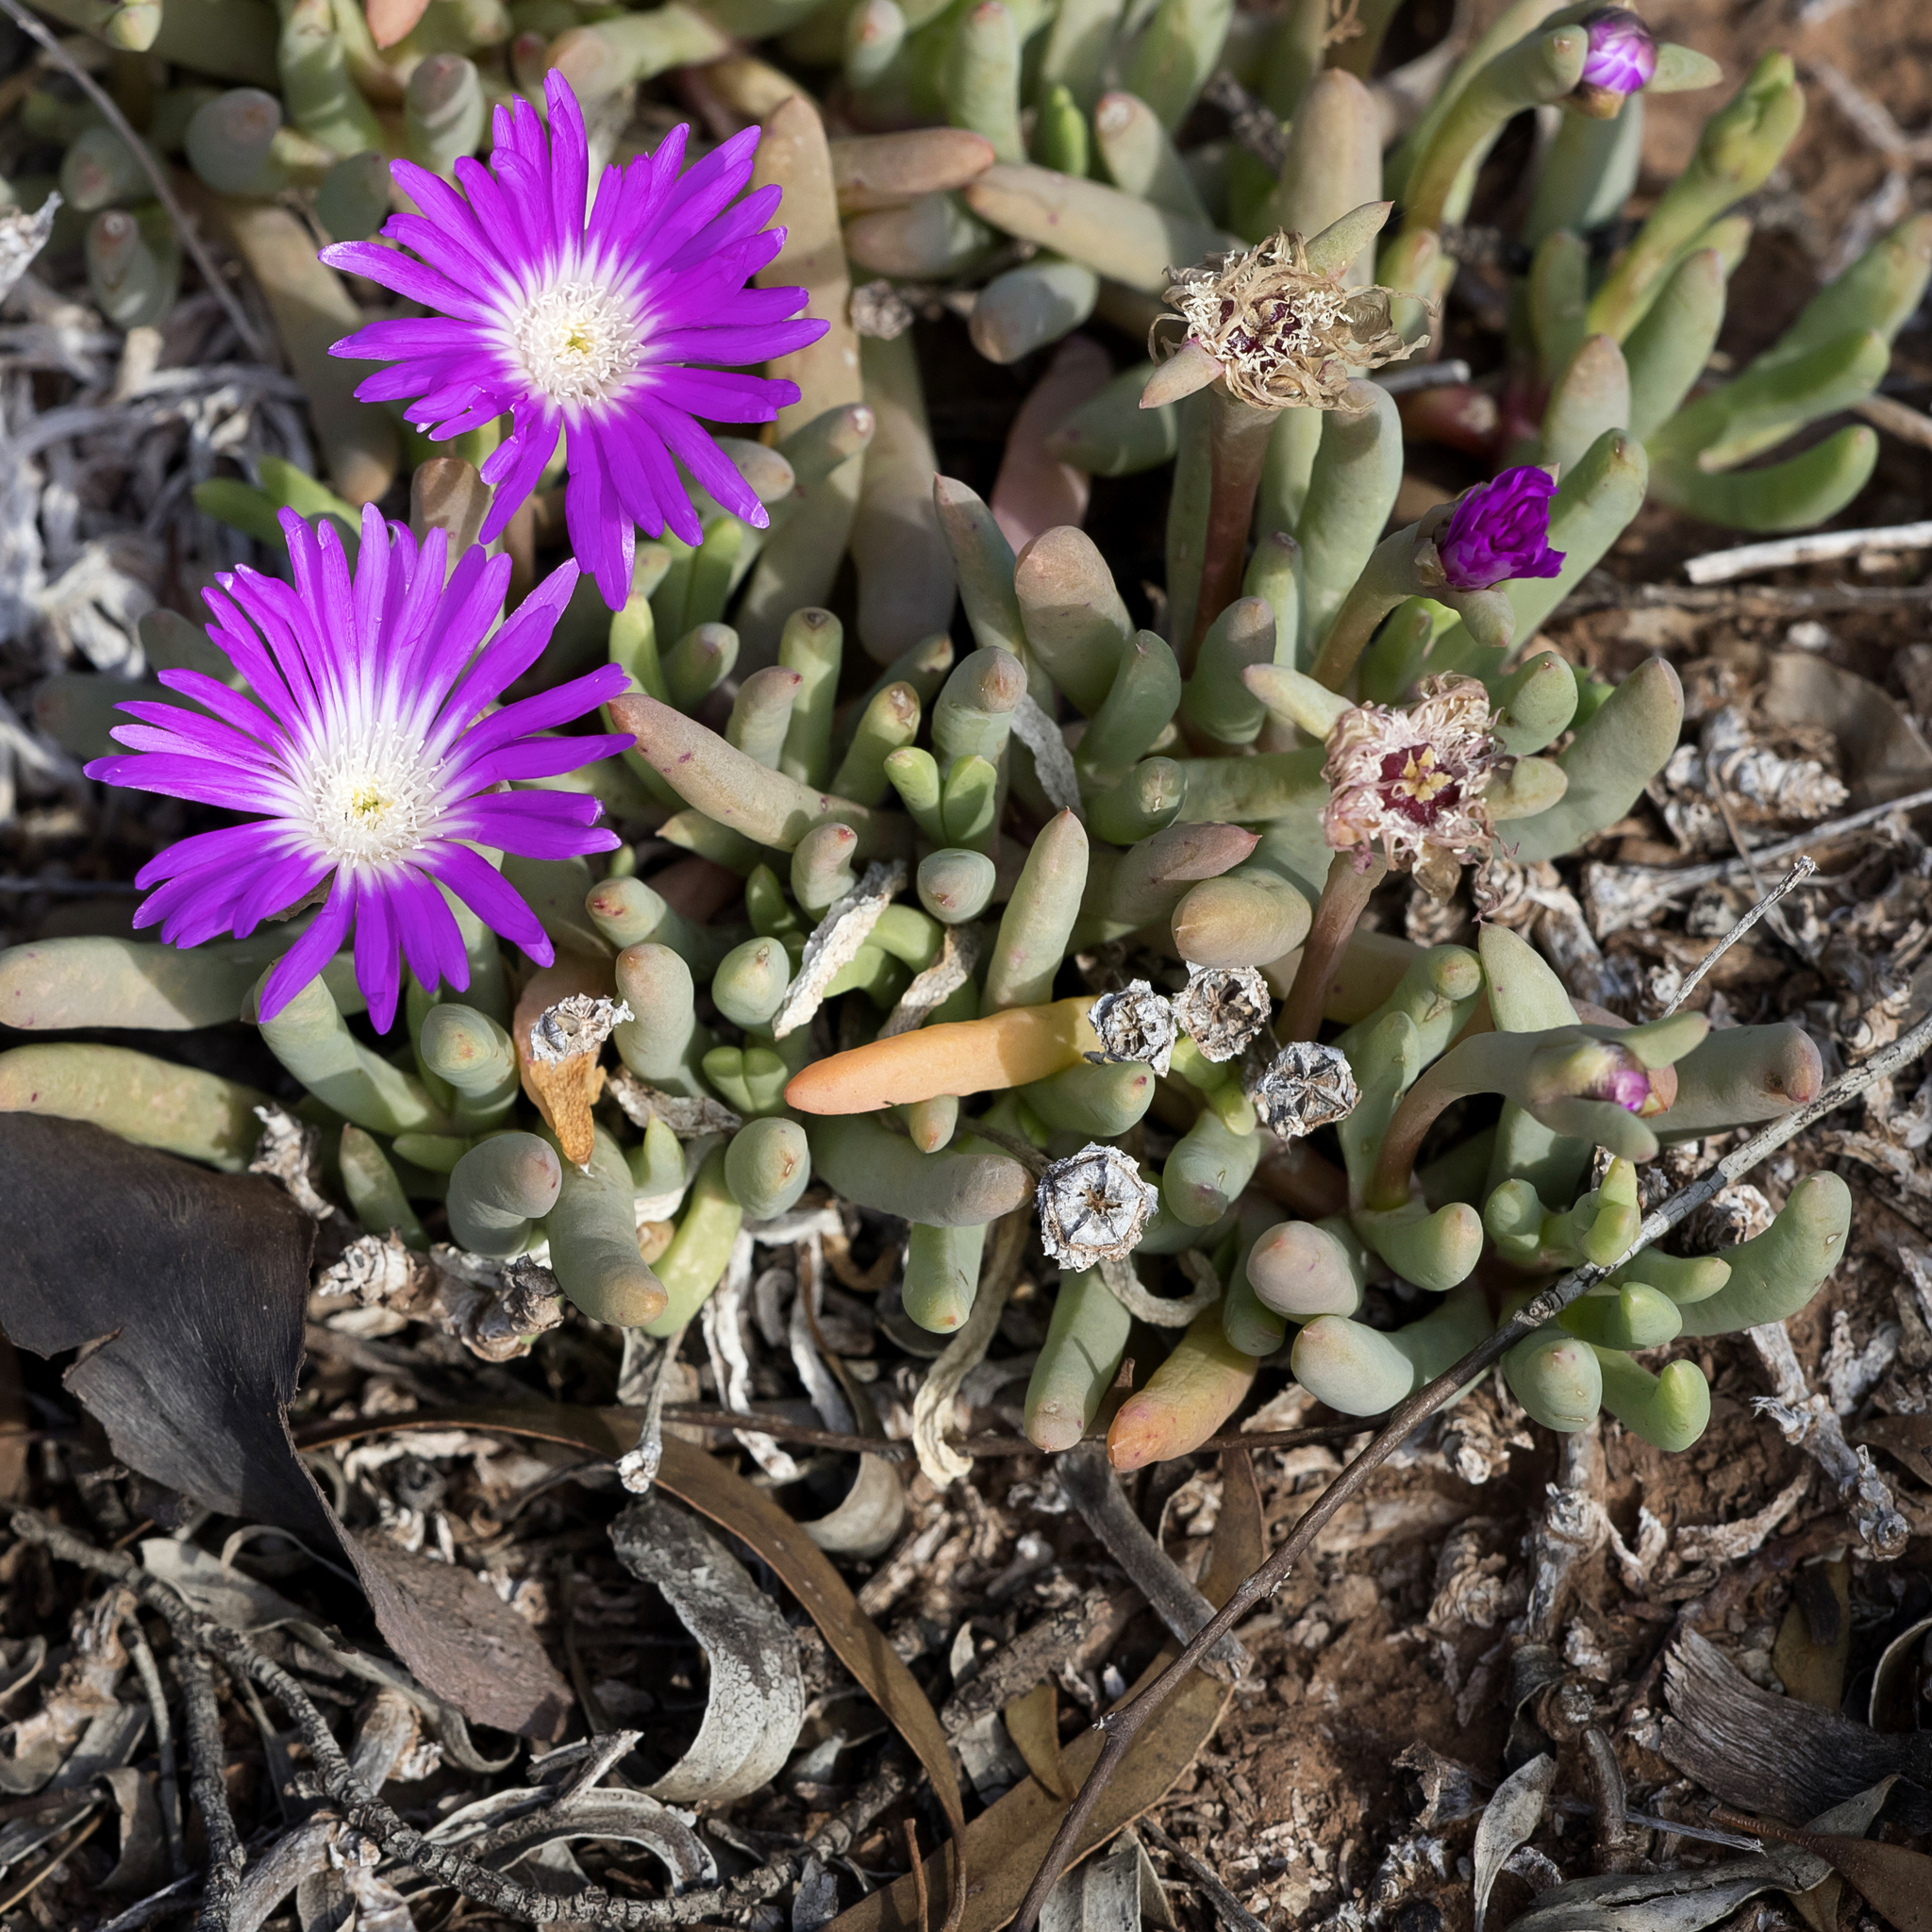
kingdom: Plantae
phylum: Tracheophyta
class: Magnoliopsida
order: Caryophyllales
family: Aizoaceae
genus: Disphyma
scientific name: Disphyma clavellatum
